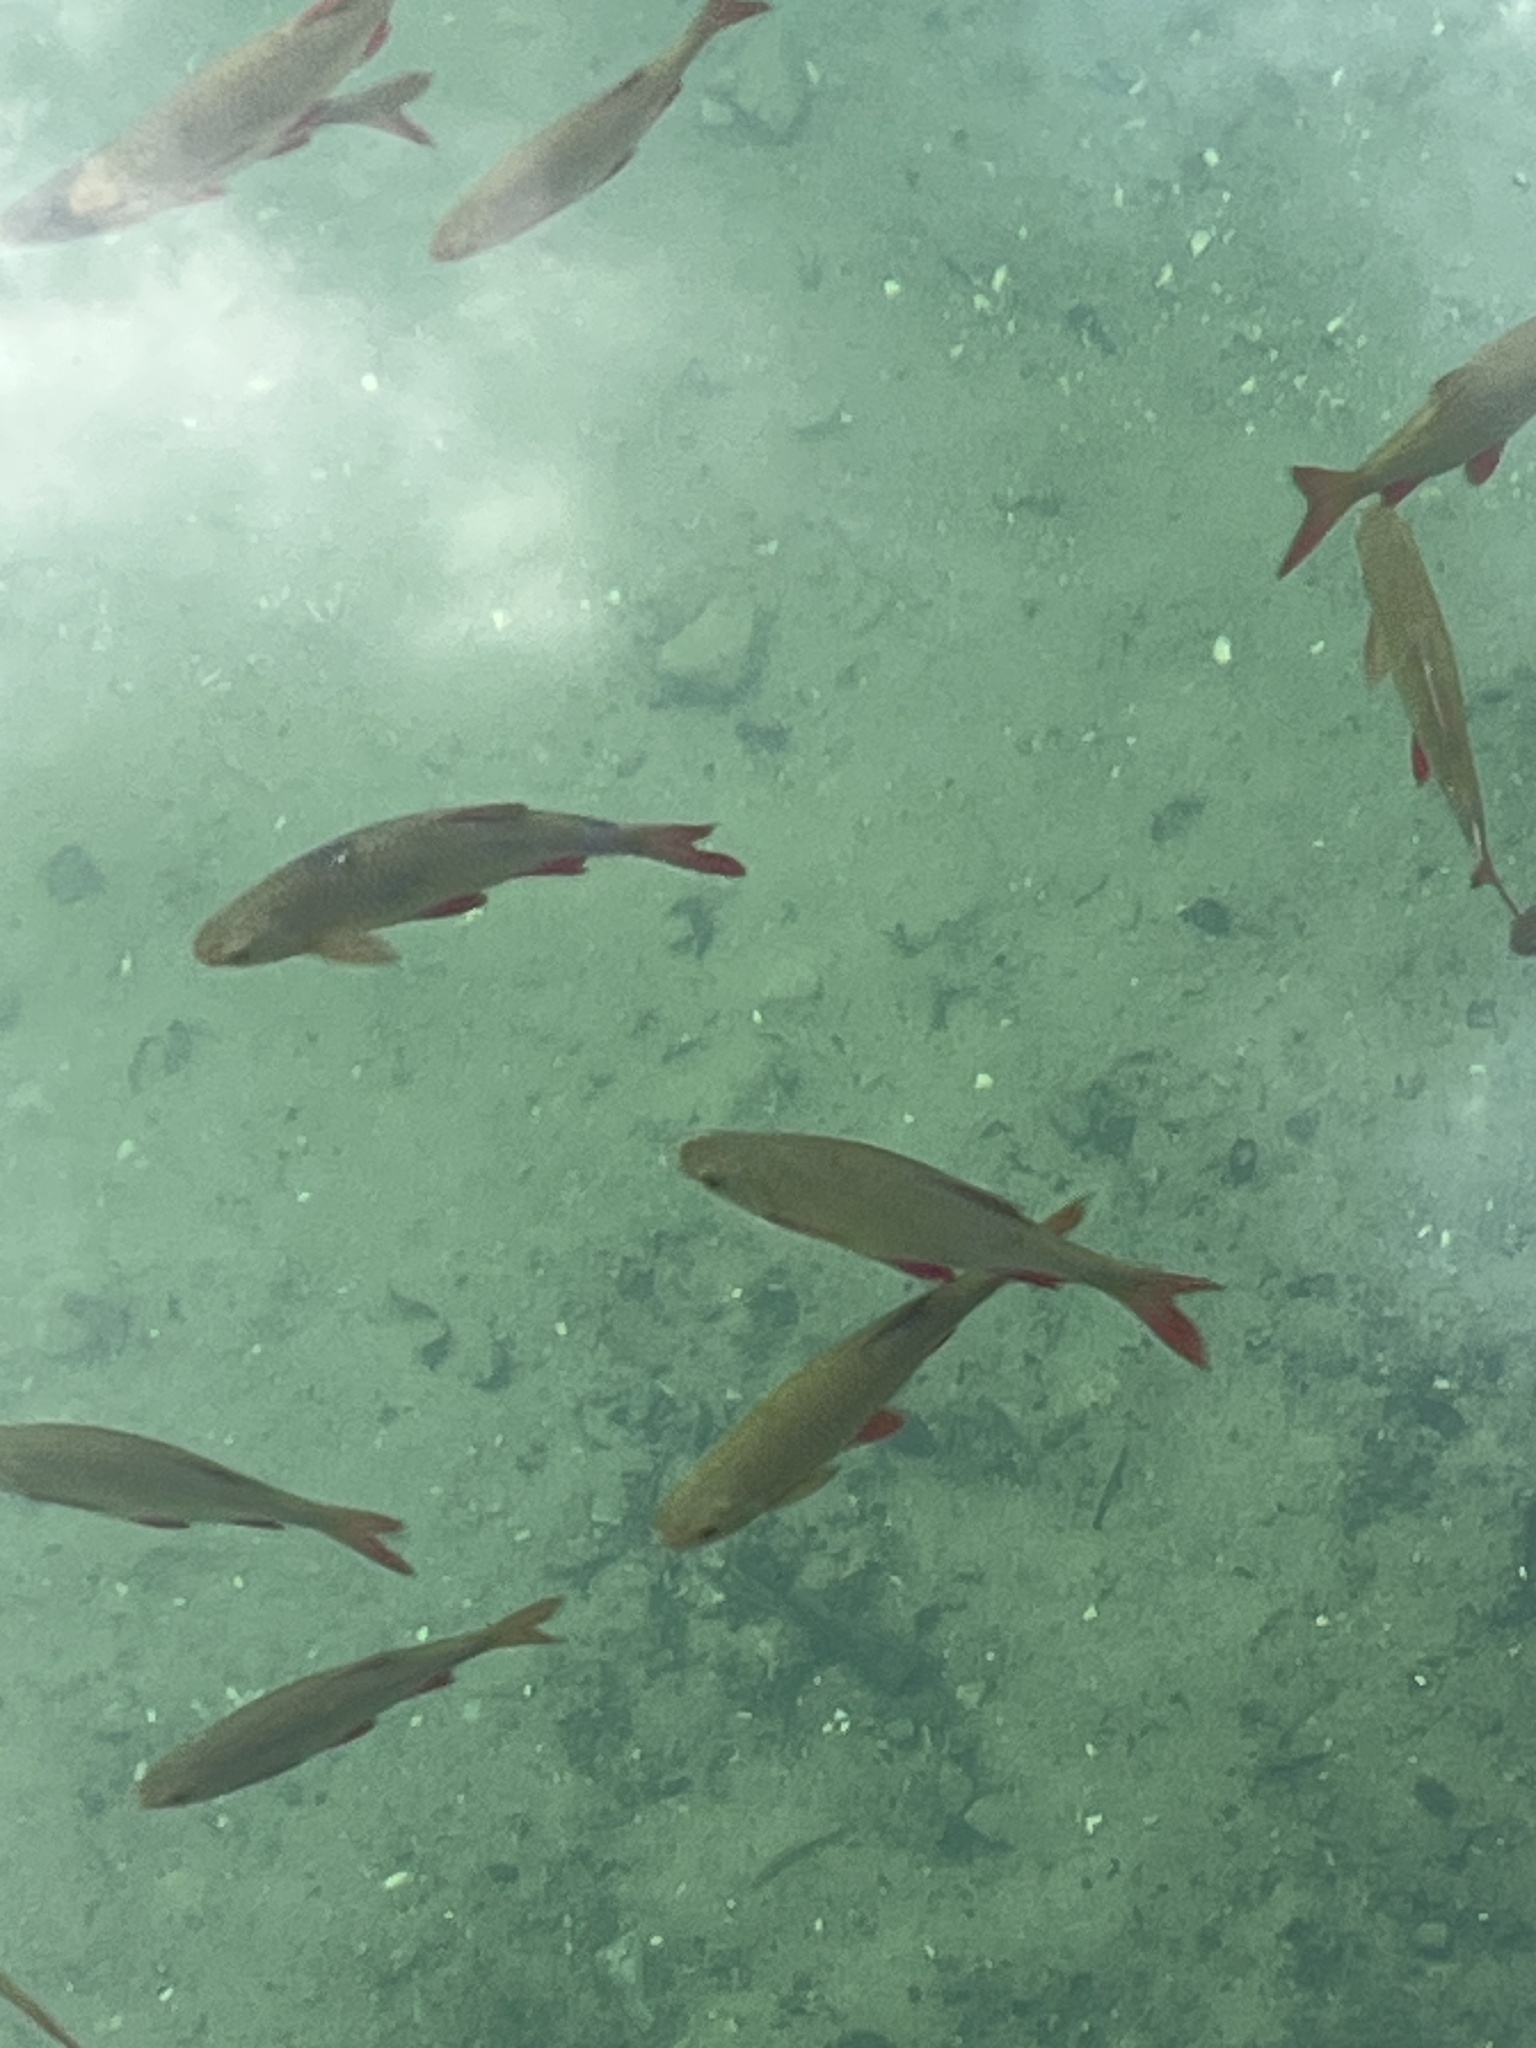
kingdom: Animalia
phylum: Chordata
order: Cypriniformes
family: Cyprinidae
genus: Scardinius
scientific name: Scardinius erythrophthalmus
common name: Rudd
